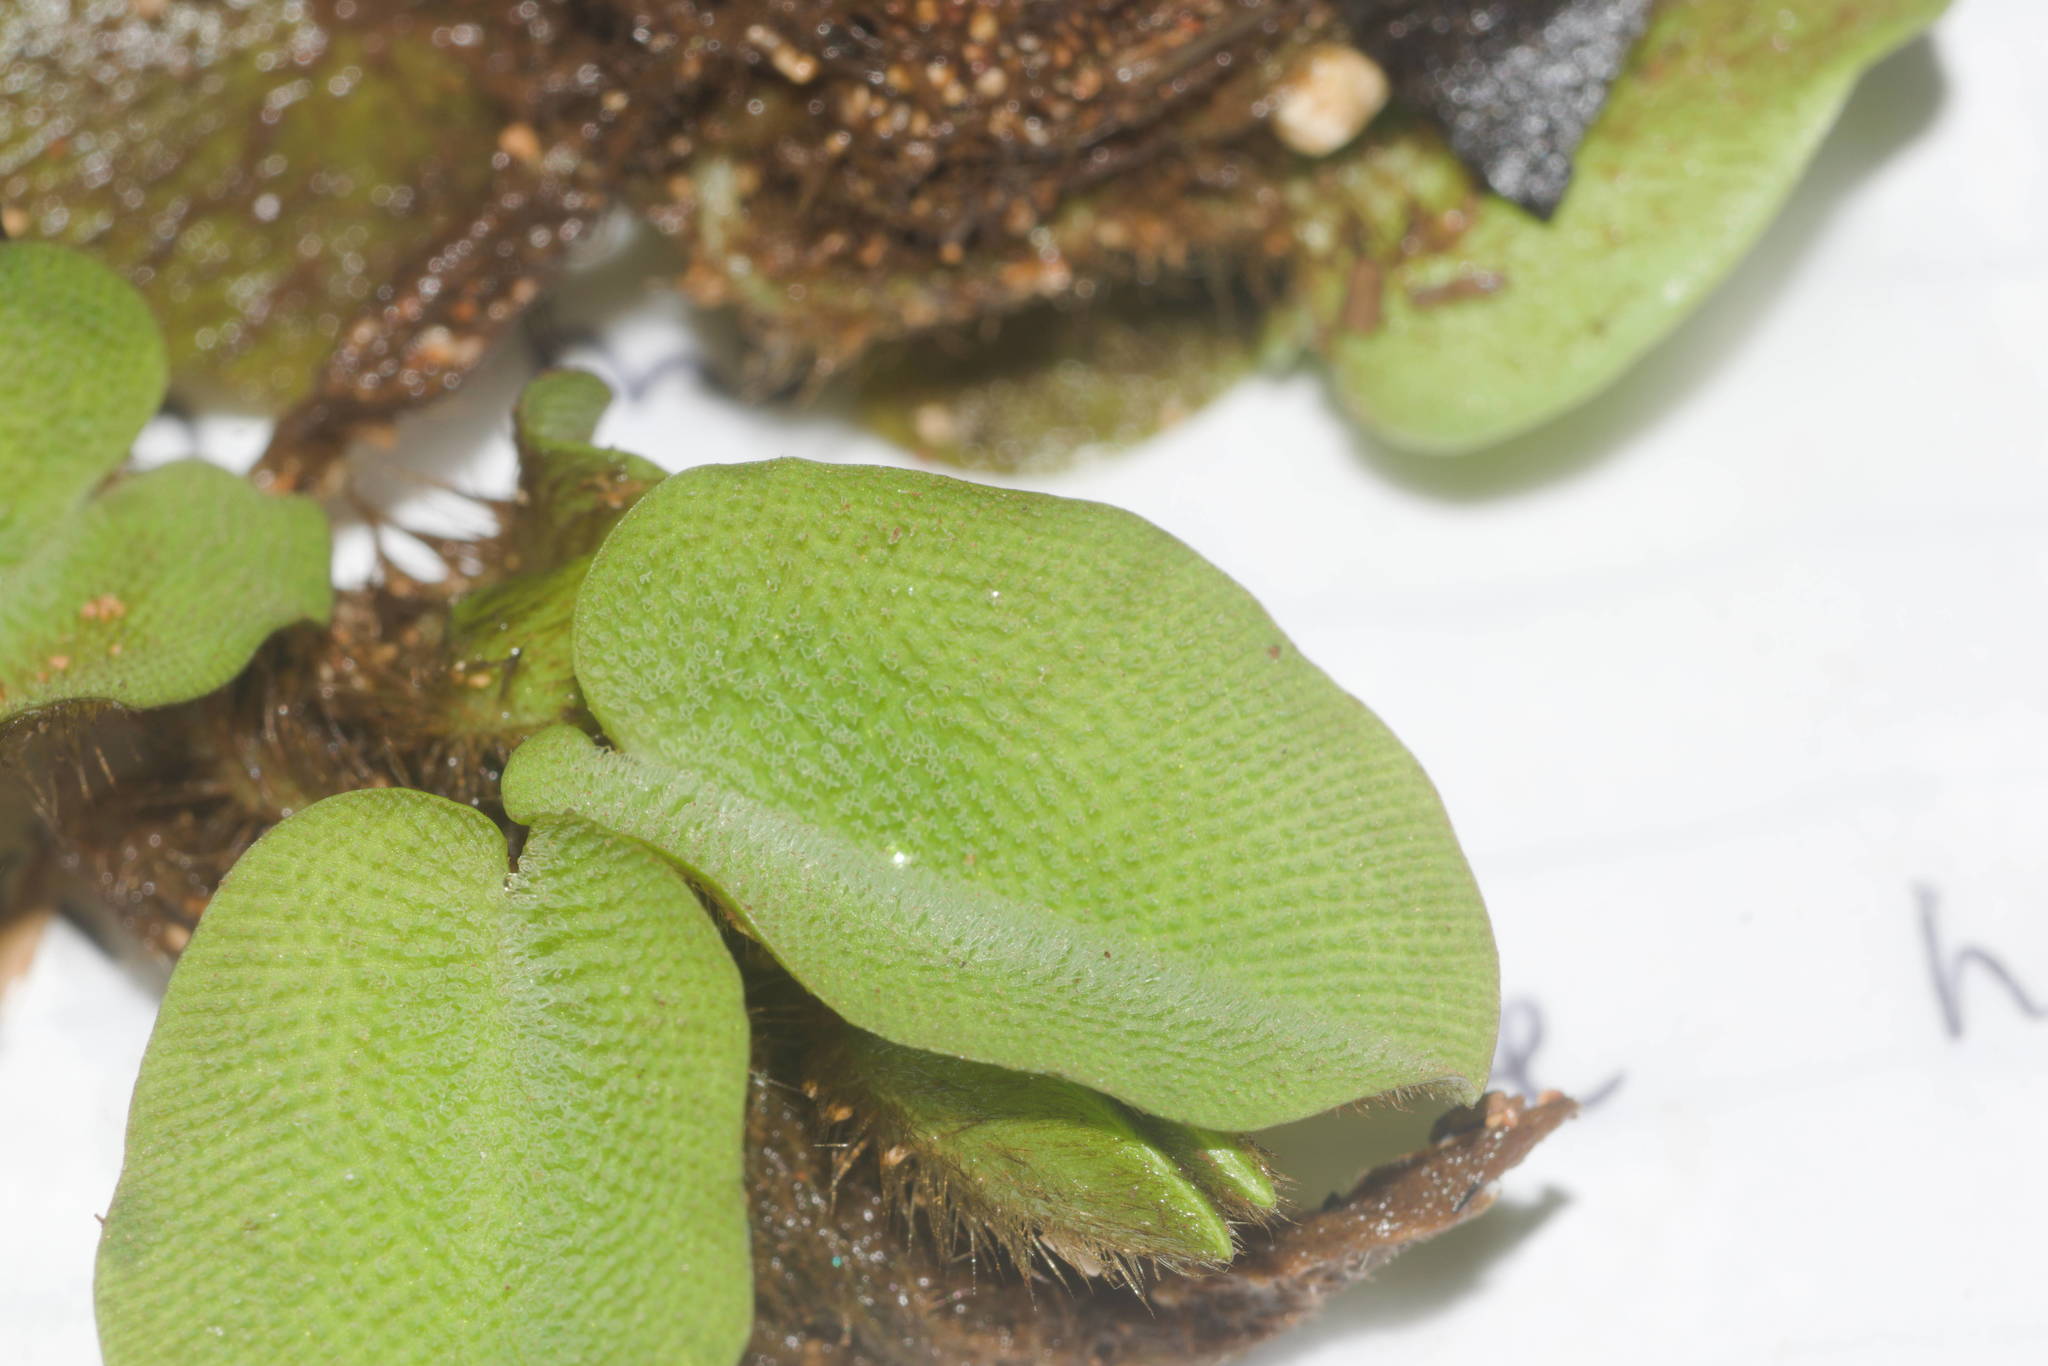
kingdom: Plantae
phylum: Tracheophyta
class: Polypodiopsida
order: Salviniales
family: Salviniaceae
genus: Salvinia
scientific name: Salvinia molesta
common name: Kariba weed
